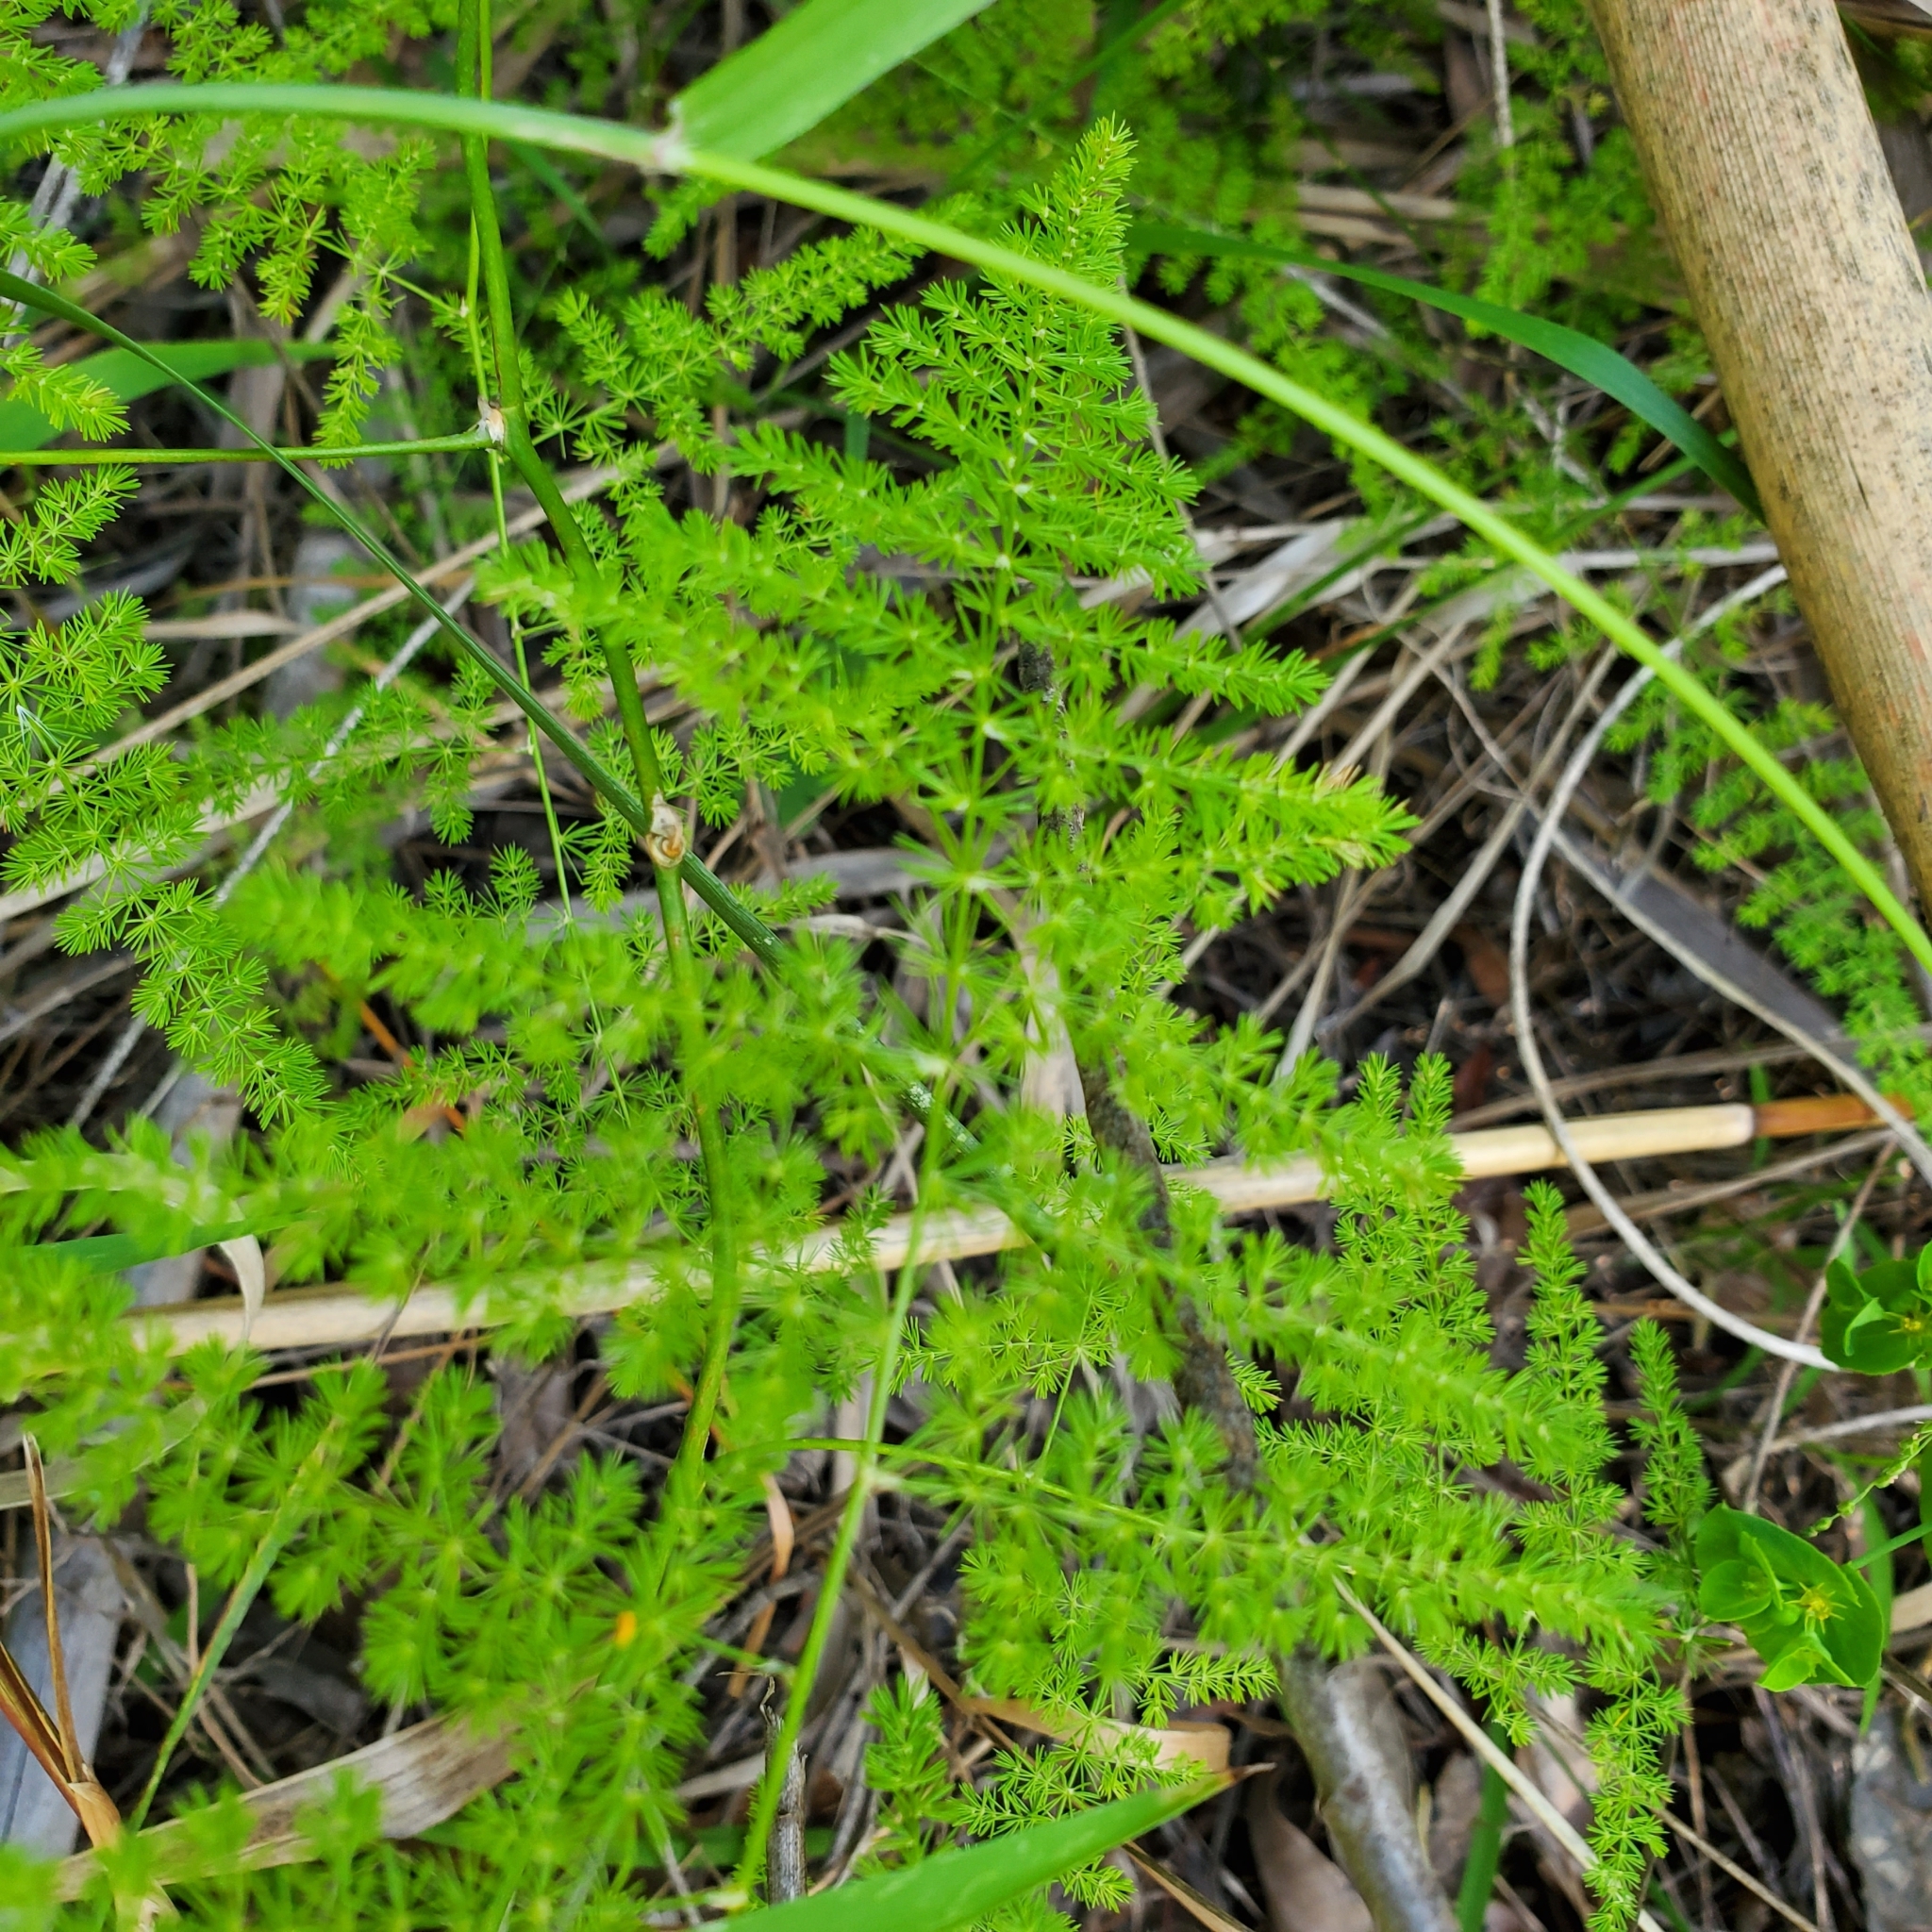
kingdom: Plantae
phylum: Tracheophyta
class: Liliopsida
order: Asparagales
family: Asparagaceae
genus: Asparagus
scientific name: Asparagus setaceus
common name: Common asparagus fern
